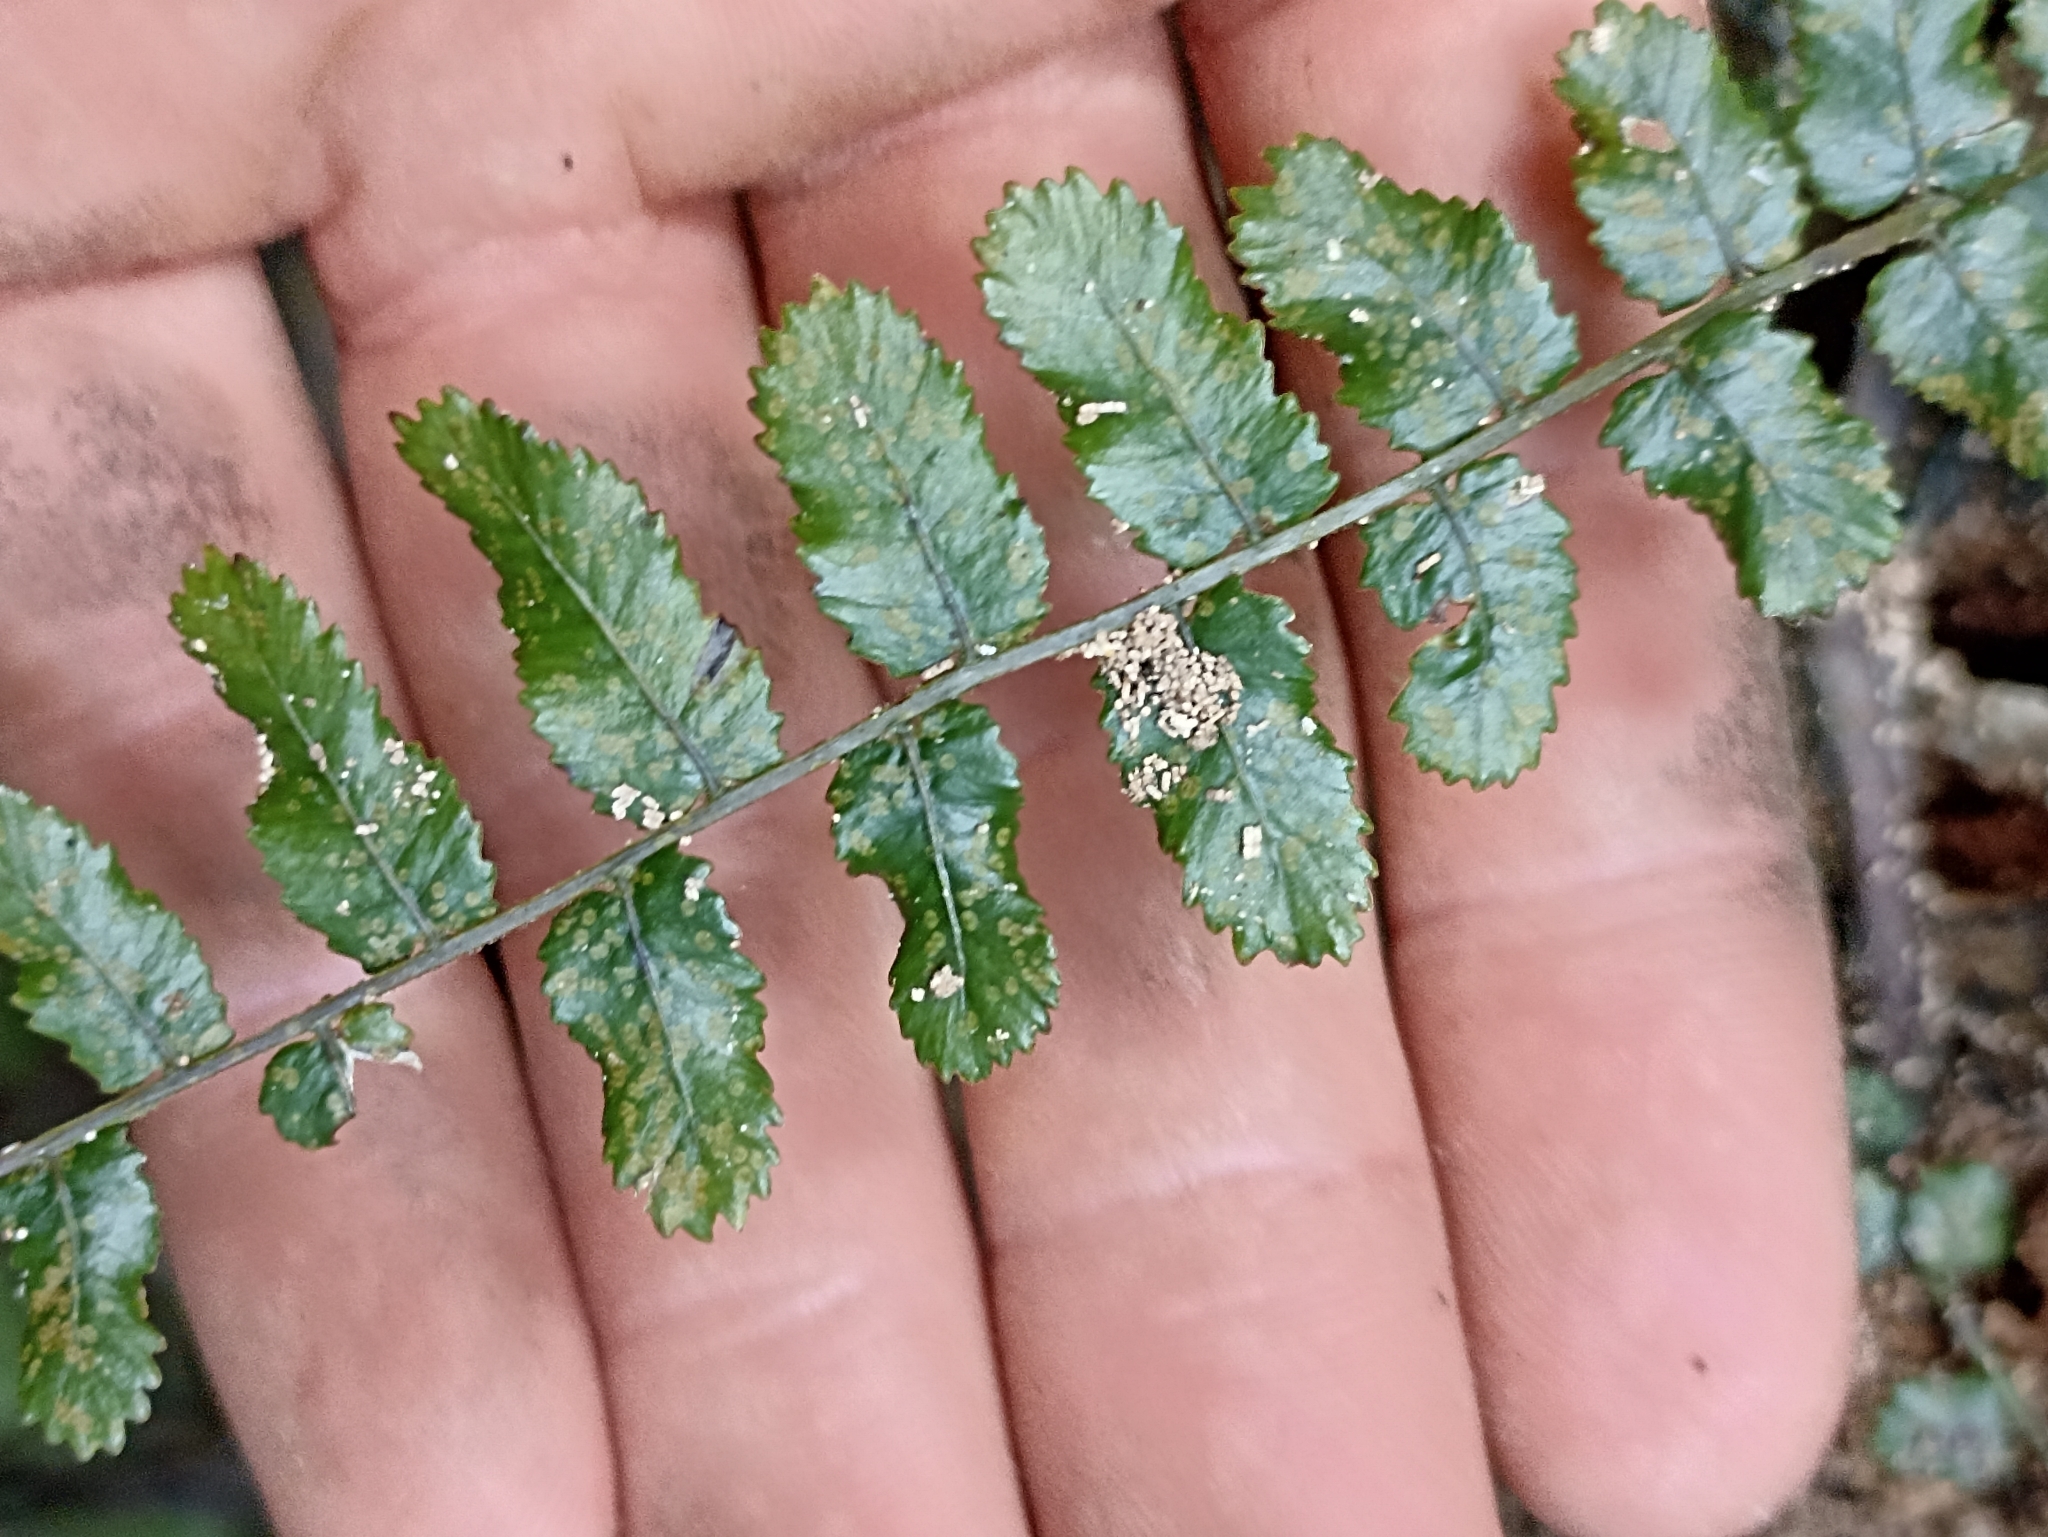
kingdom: Plantae
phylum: Tracheophyta
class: Polypodiopsida
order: Polypodiales
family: Blechnaceae
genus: Icarus
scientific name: Icarus filiformis
